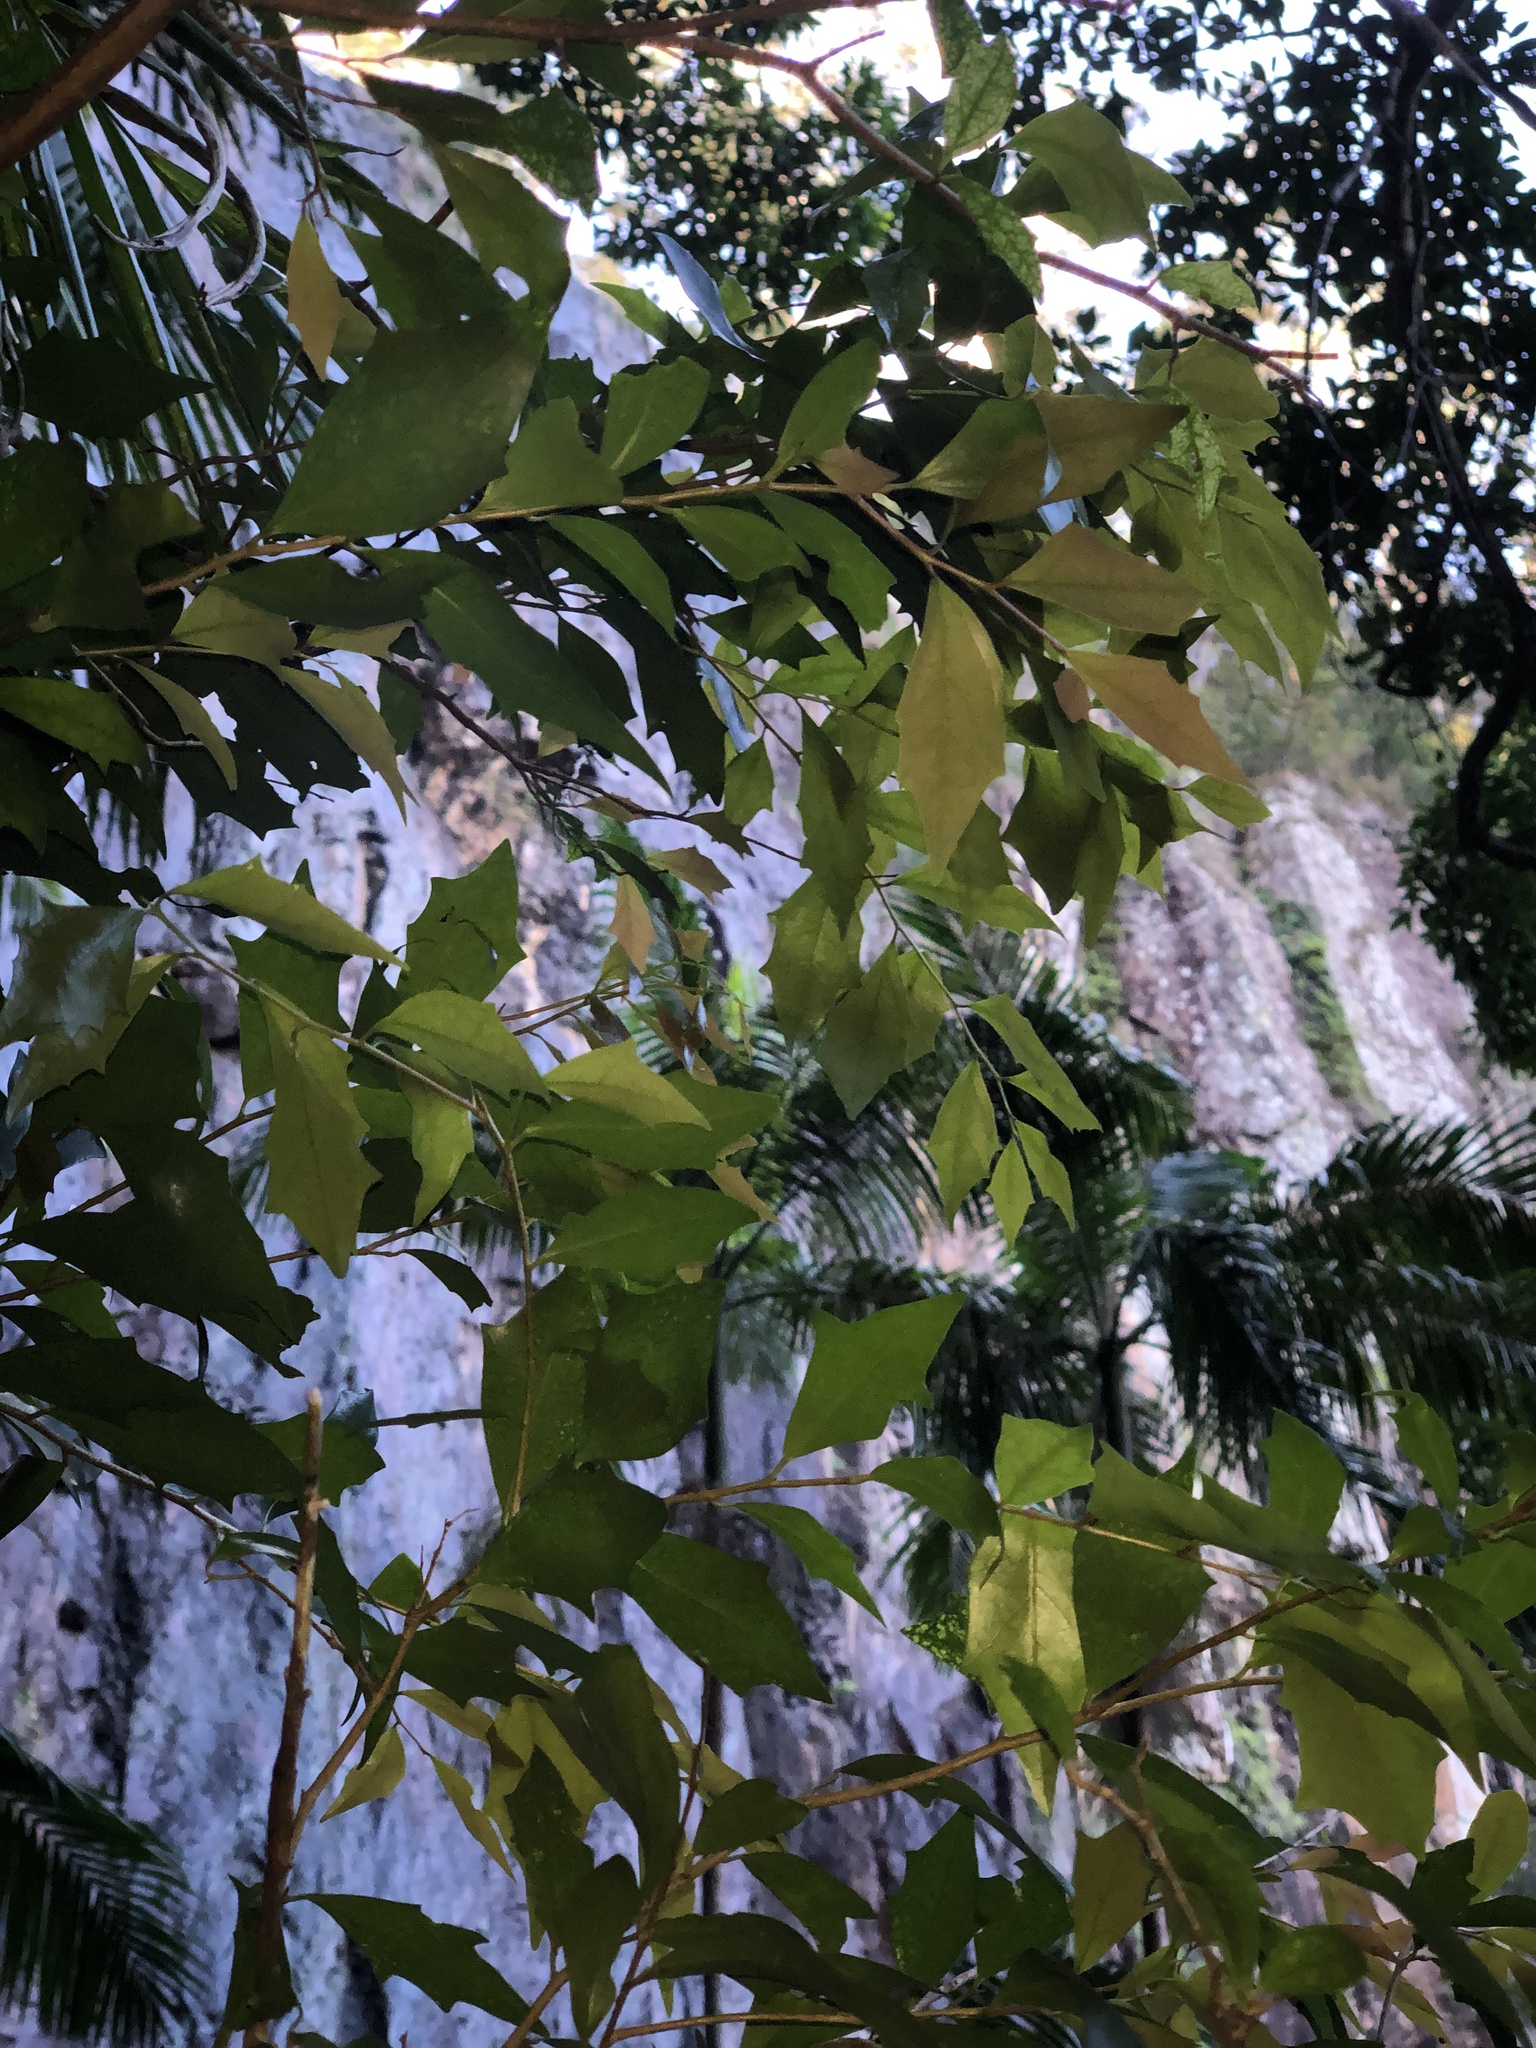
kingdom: Plantae
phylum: Tracheophyta
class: Magnoliopsida
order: Malpighiales
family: Salicaceae
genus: Scolopia
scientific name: Scolopia braunii
